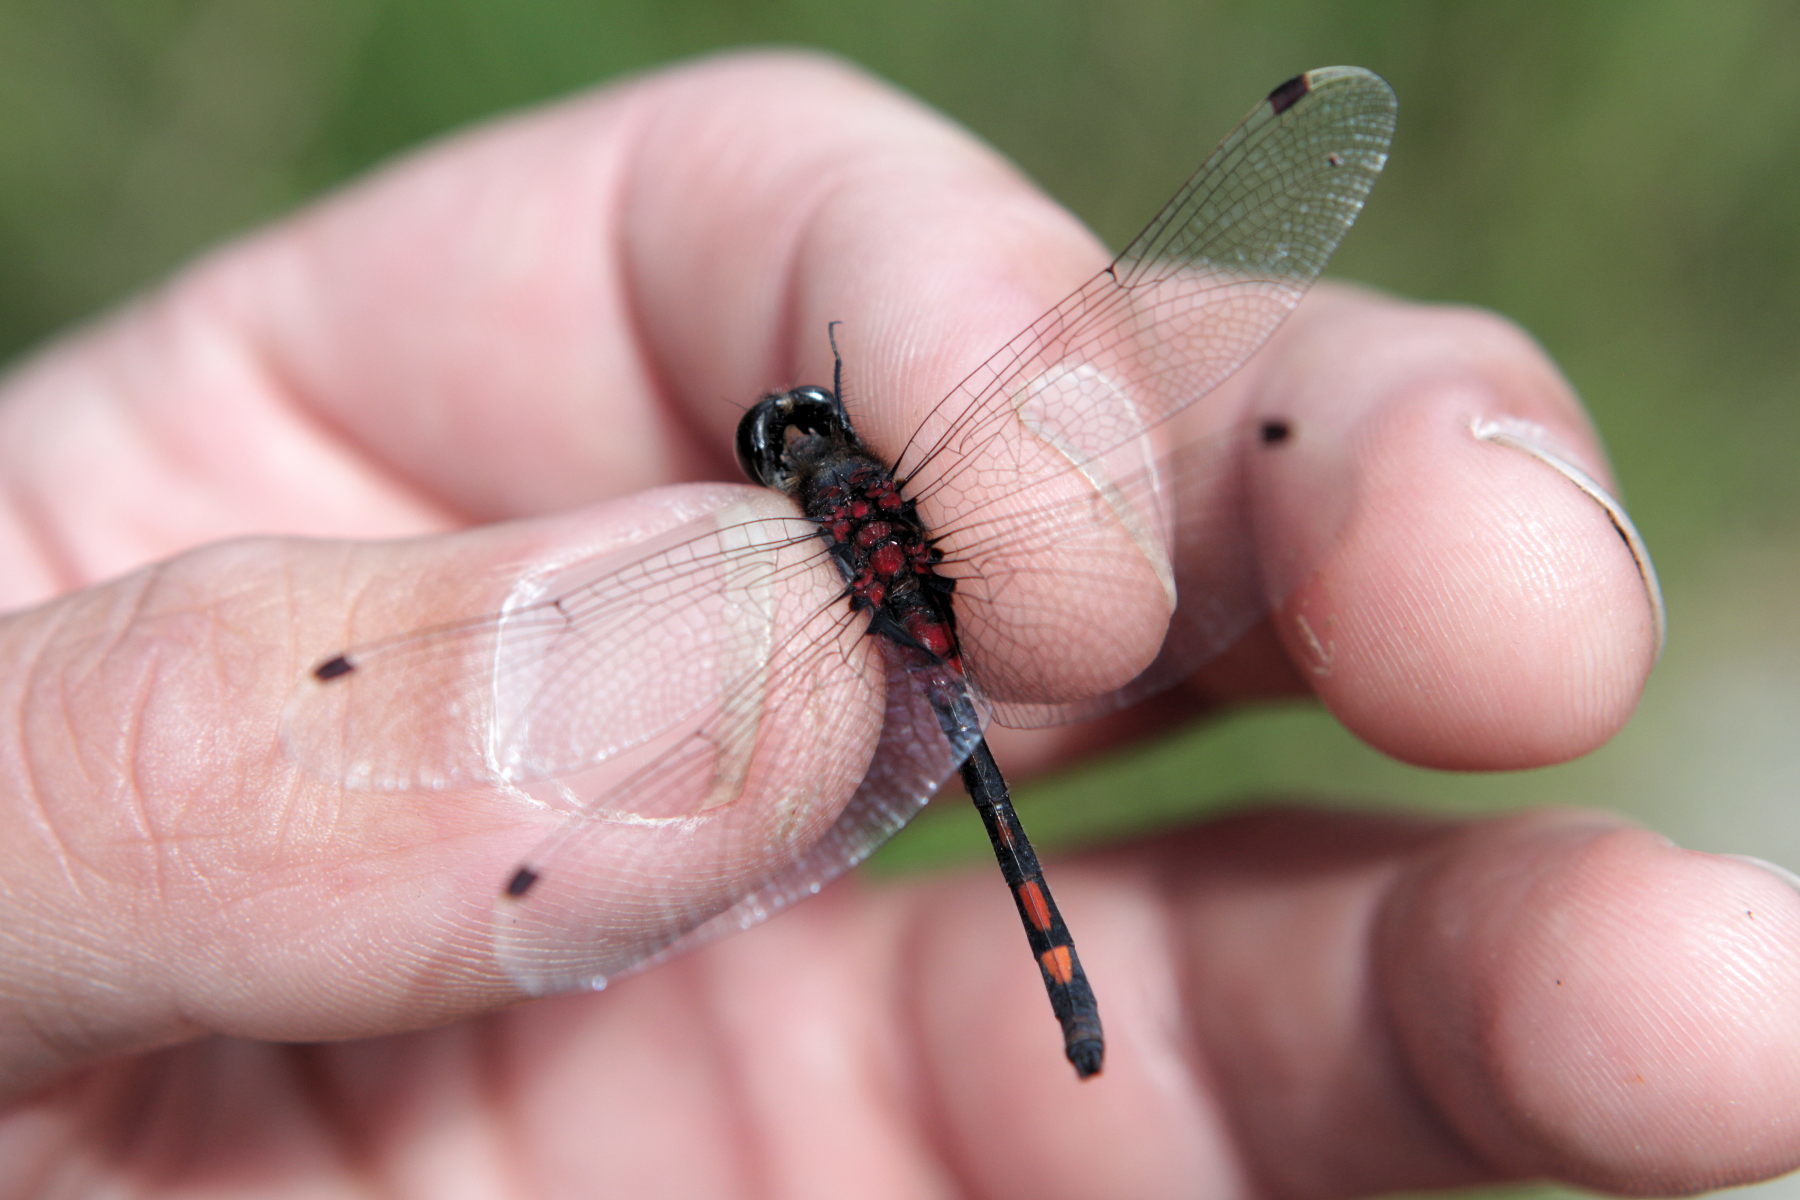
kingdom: Animalia
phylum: Arthropoda
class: Insecta
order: Odonata
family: Libellulidae
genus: Leucorrhinia
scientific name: Leucorrhinia dubia
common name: White-faced darter
